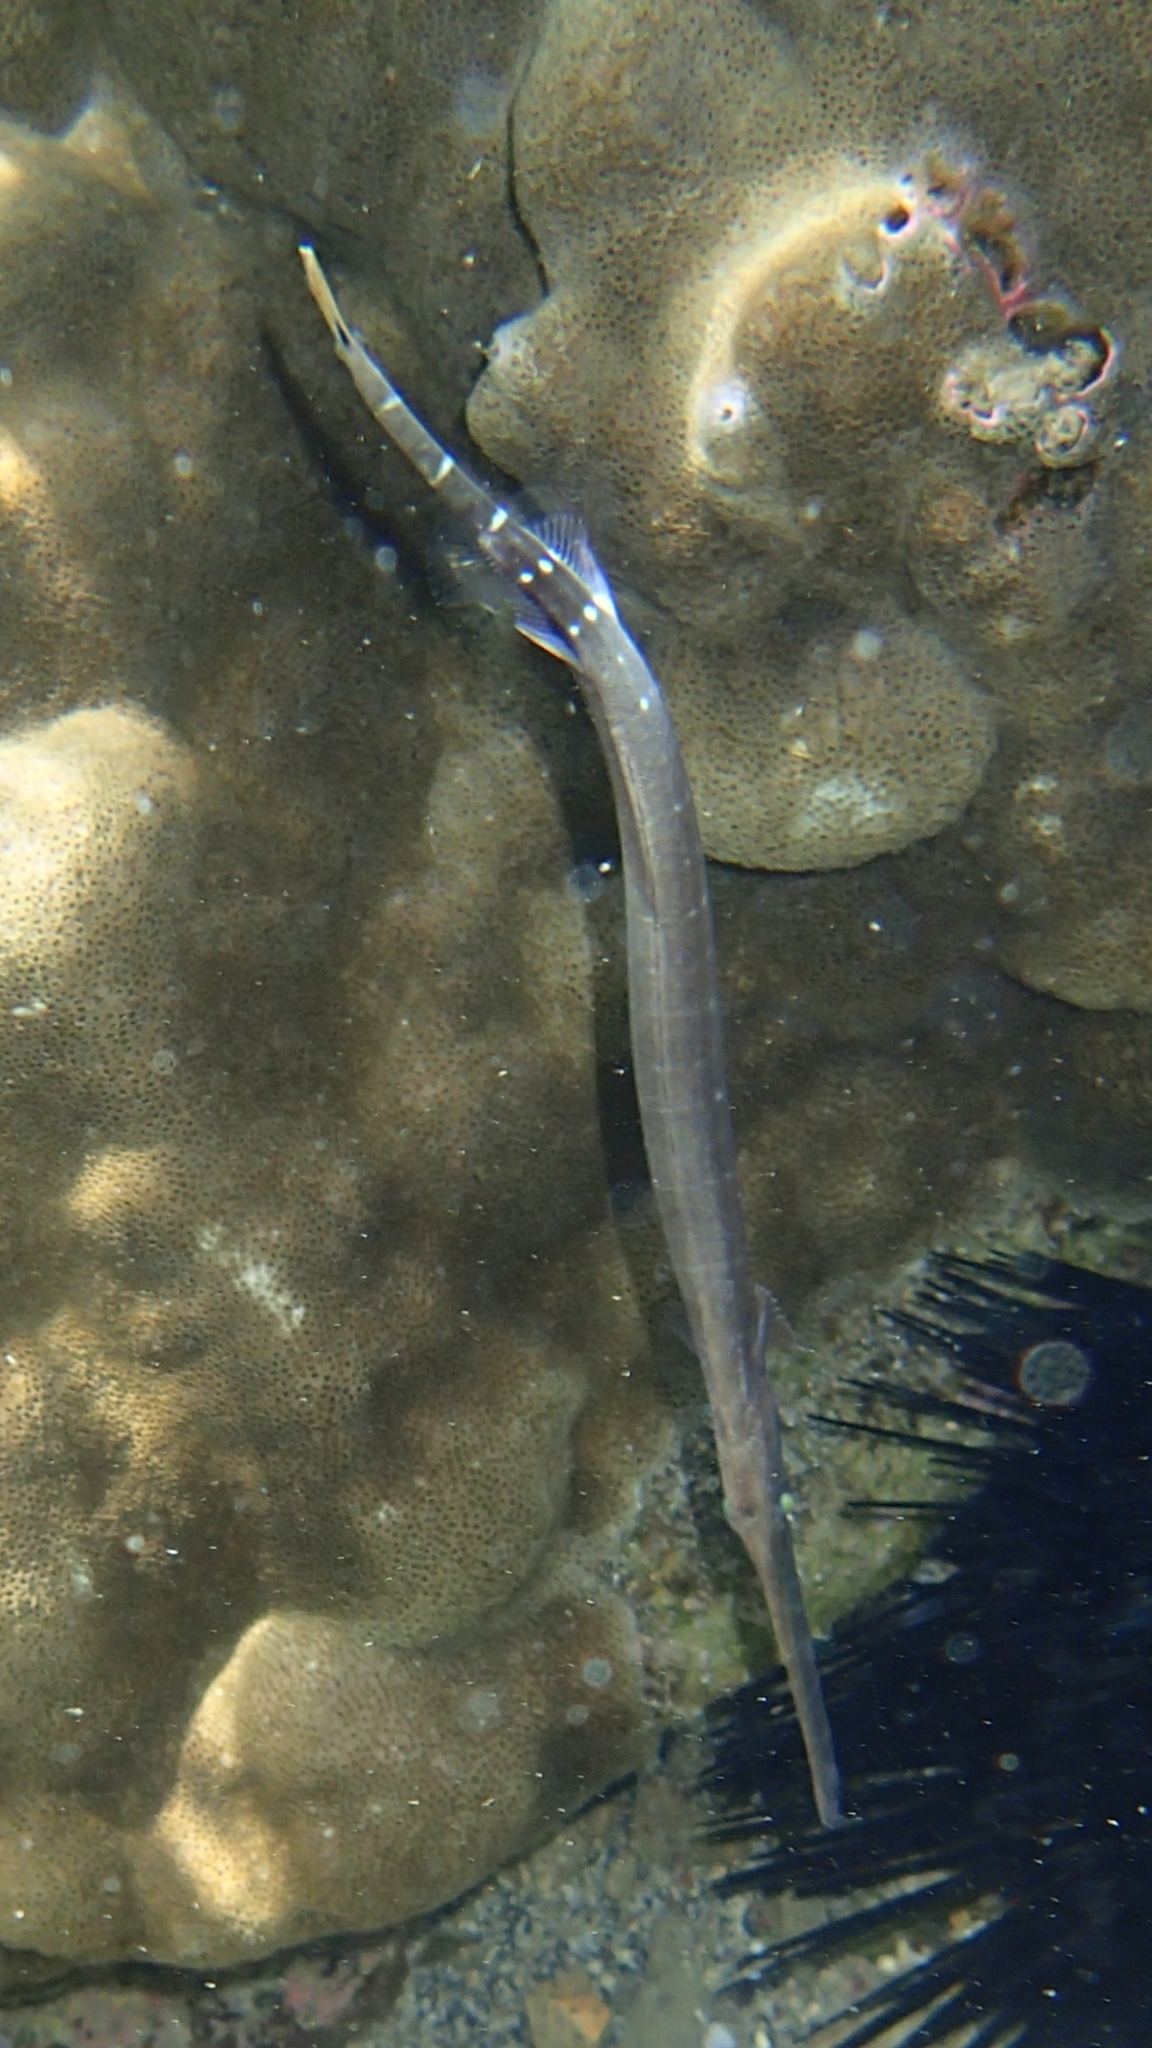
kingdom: Animalia
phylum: Chordata
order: Syngnathiformes
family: Aulostomidae
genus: Aulostomus
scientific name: Aulostomus chinensis
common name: Chinese trumpetfish
